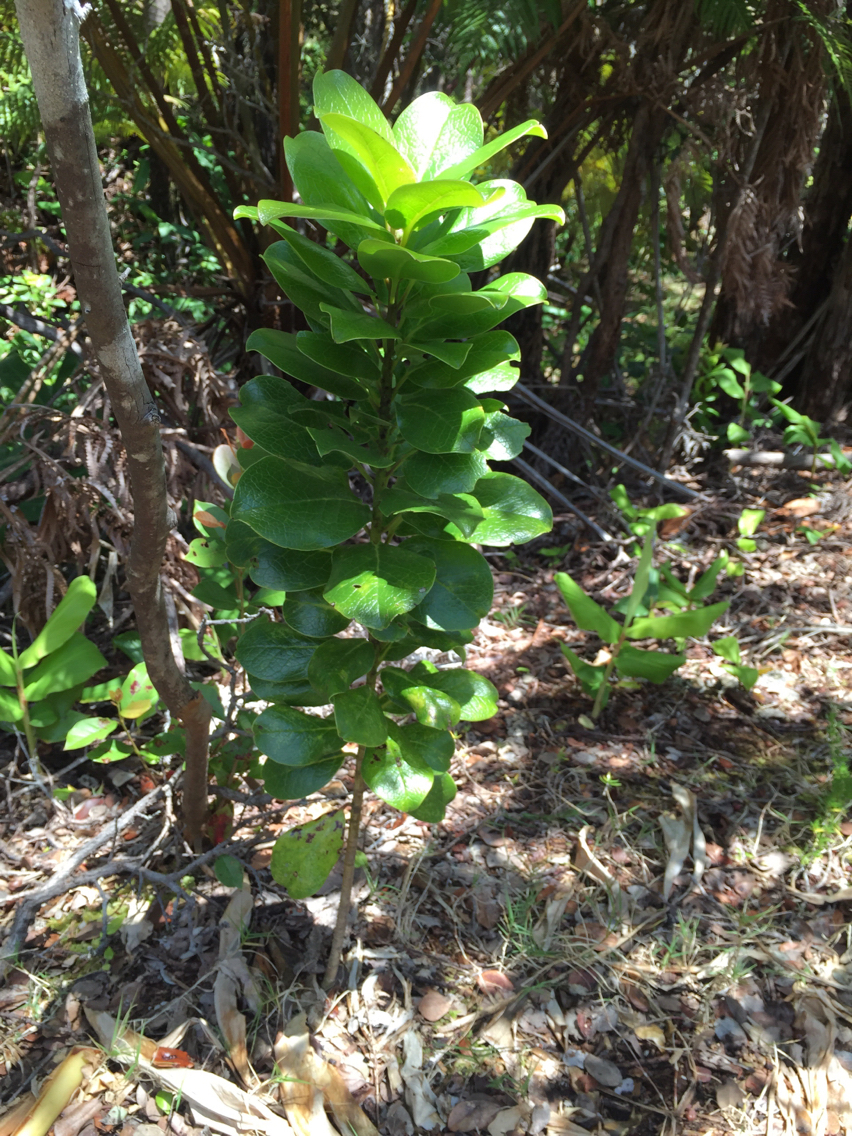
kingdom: Plantae
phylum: Tracheophyta
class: Magnoliopsida
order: Aquifoliales
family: Aquifoliaceae
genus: Ilex
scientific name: Ilex anomala
